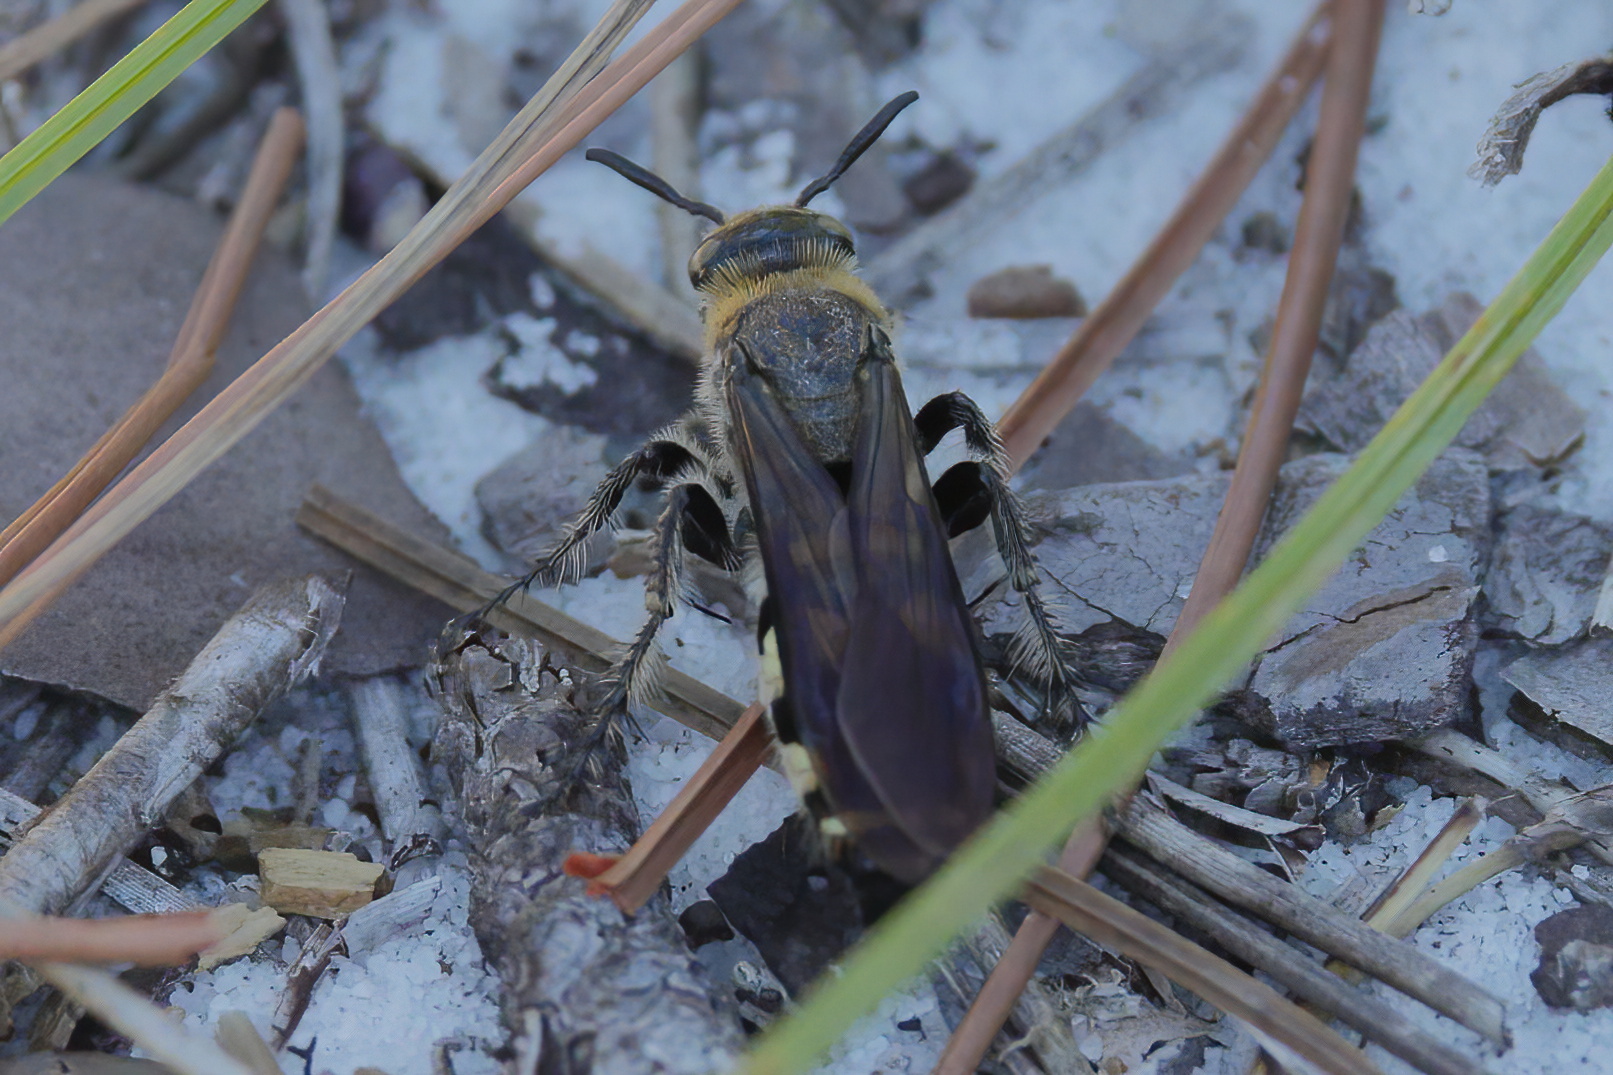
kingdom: Animalia
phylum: Arthropoda
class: Insecta
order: Hymenoptera
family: Scoliidae
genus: Dielis
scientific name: Dielis
